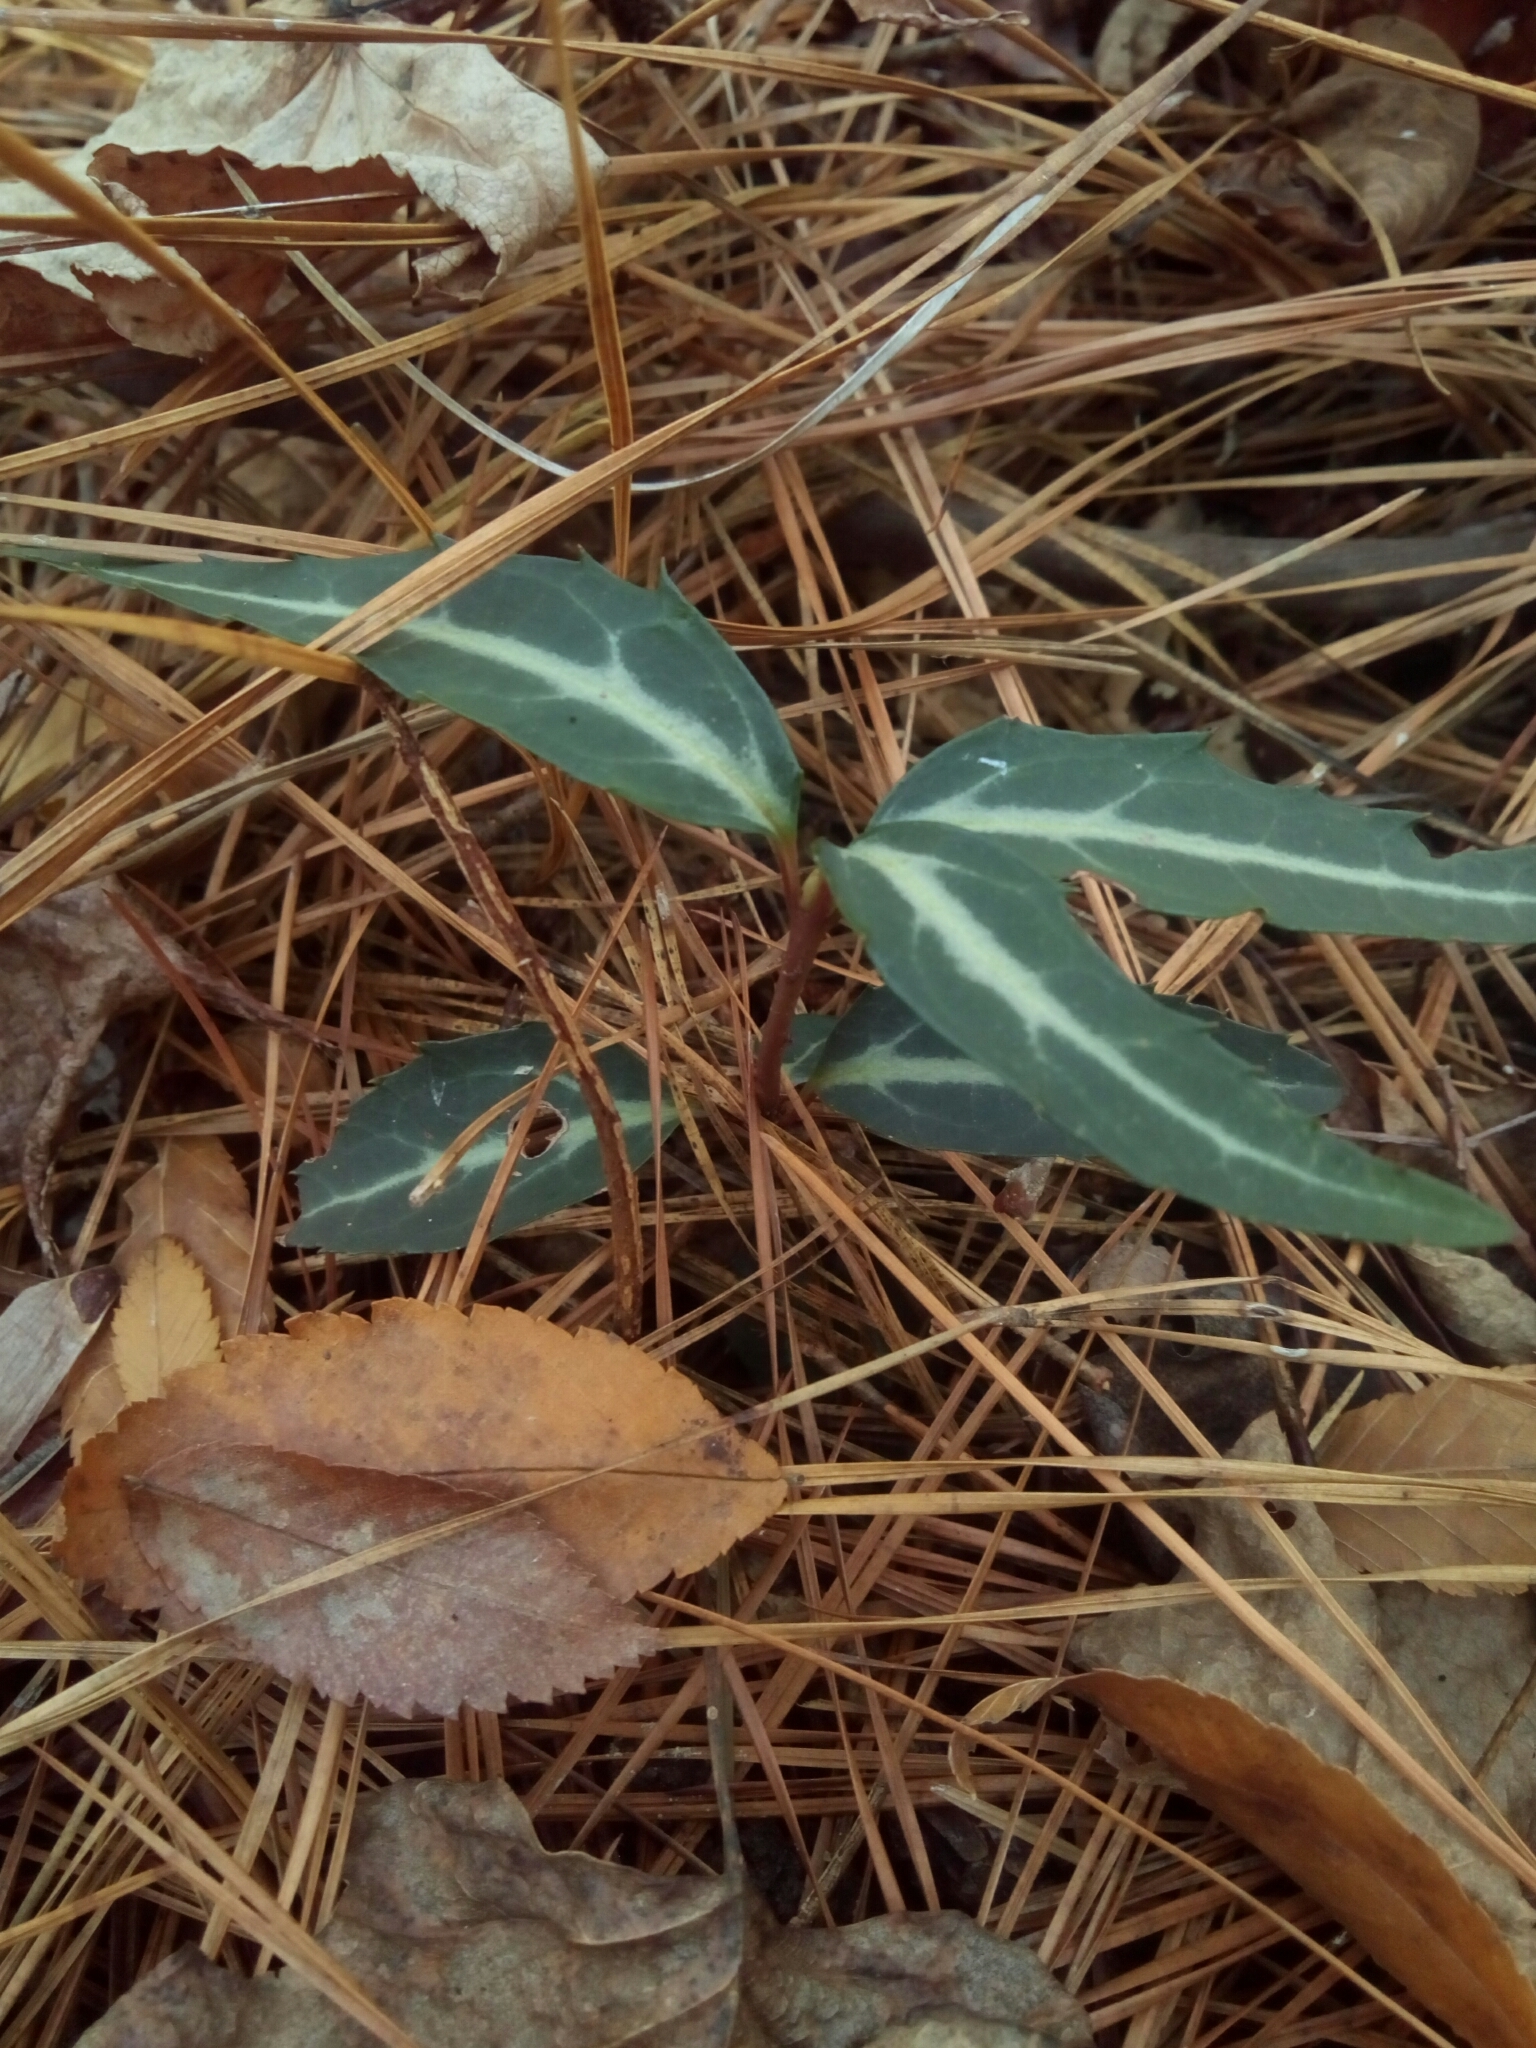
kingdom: Plantae
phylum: Tracheophyta
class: Magnoliopsida
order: Ericales
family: Ericaceae
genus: Chimaphila
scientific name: Chimaphila maculata
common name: Spotted pipsissewa
